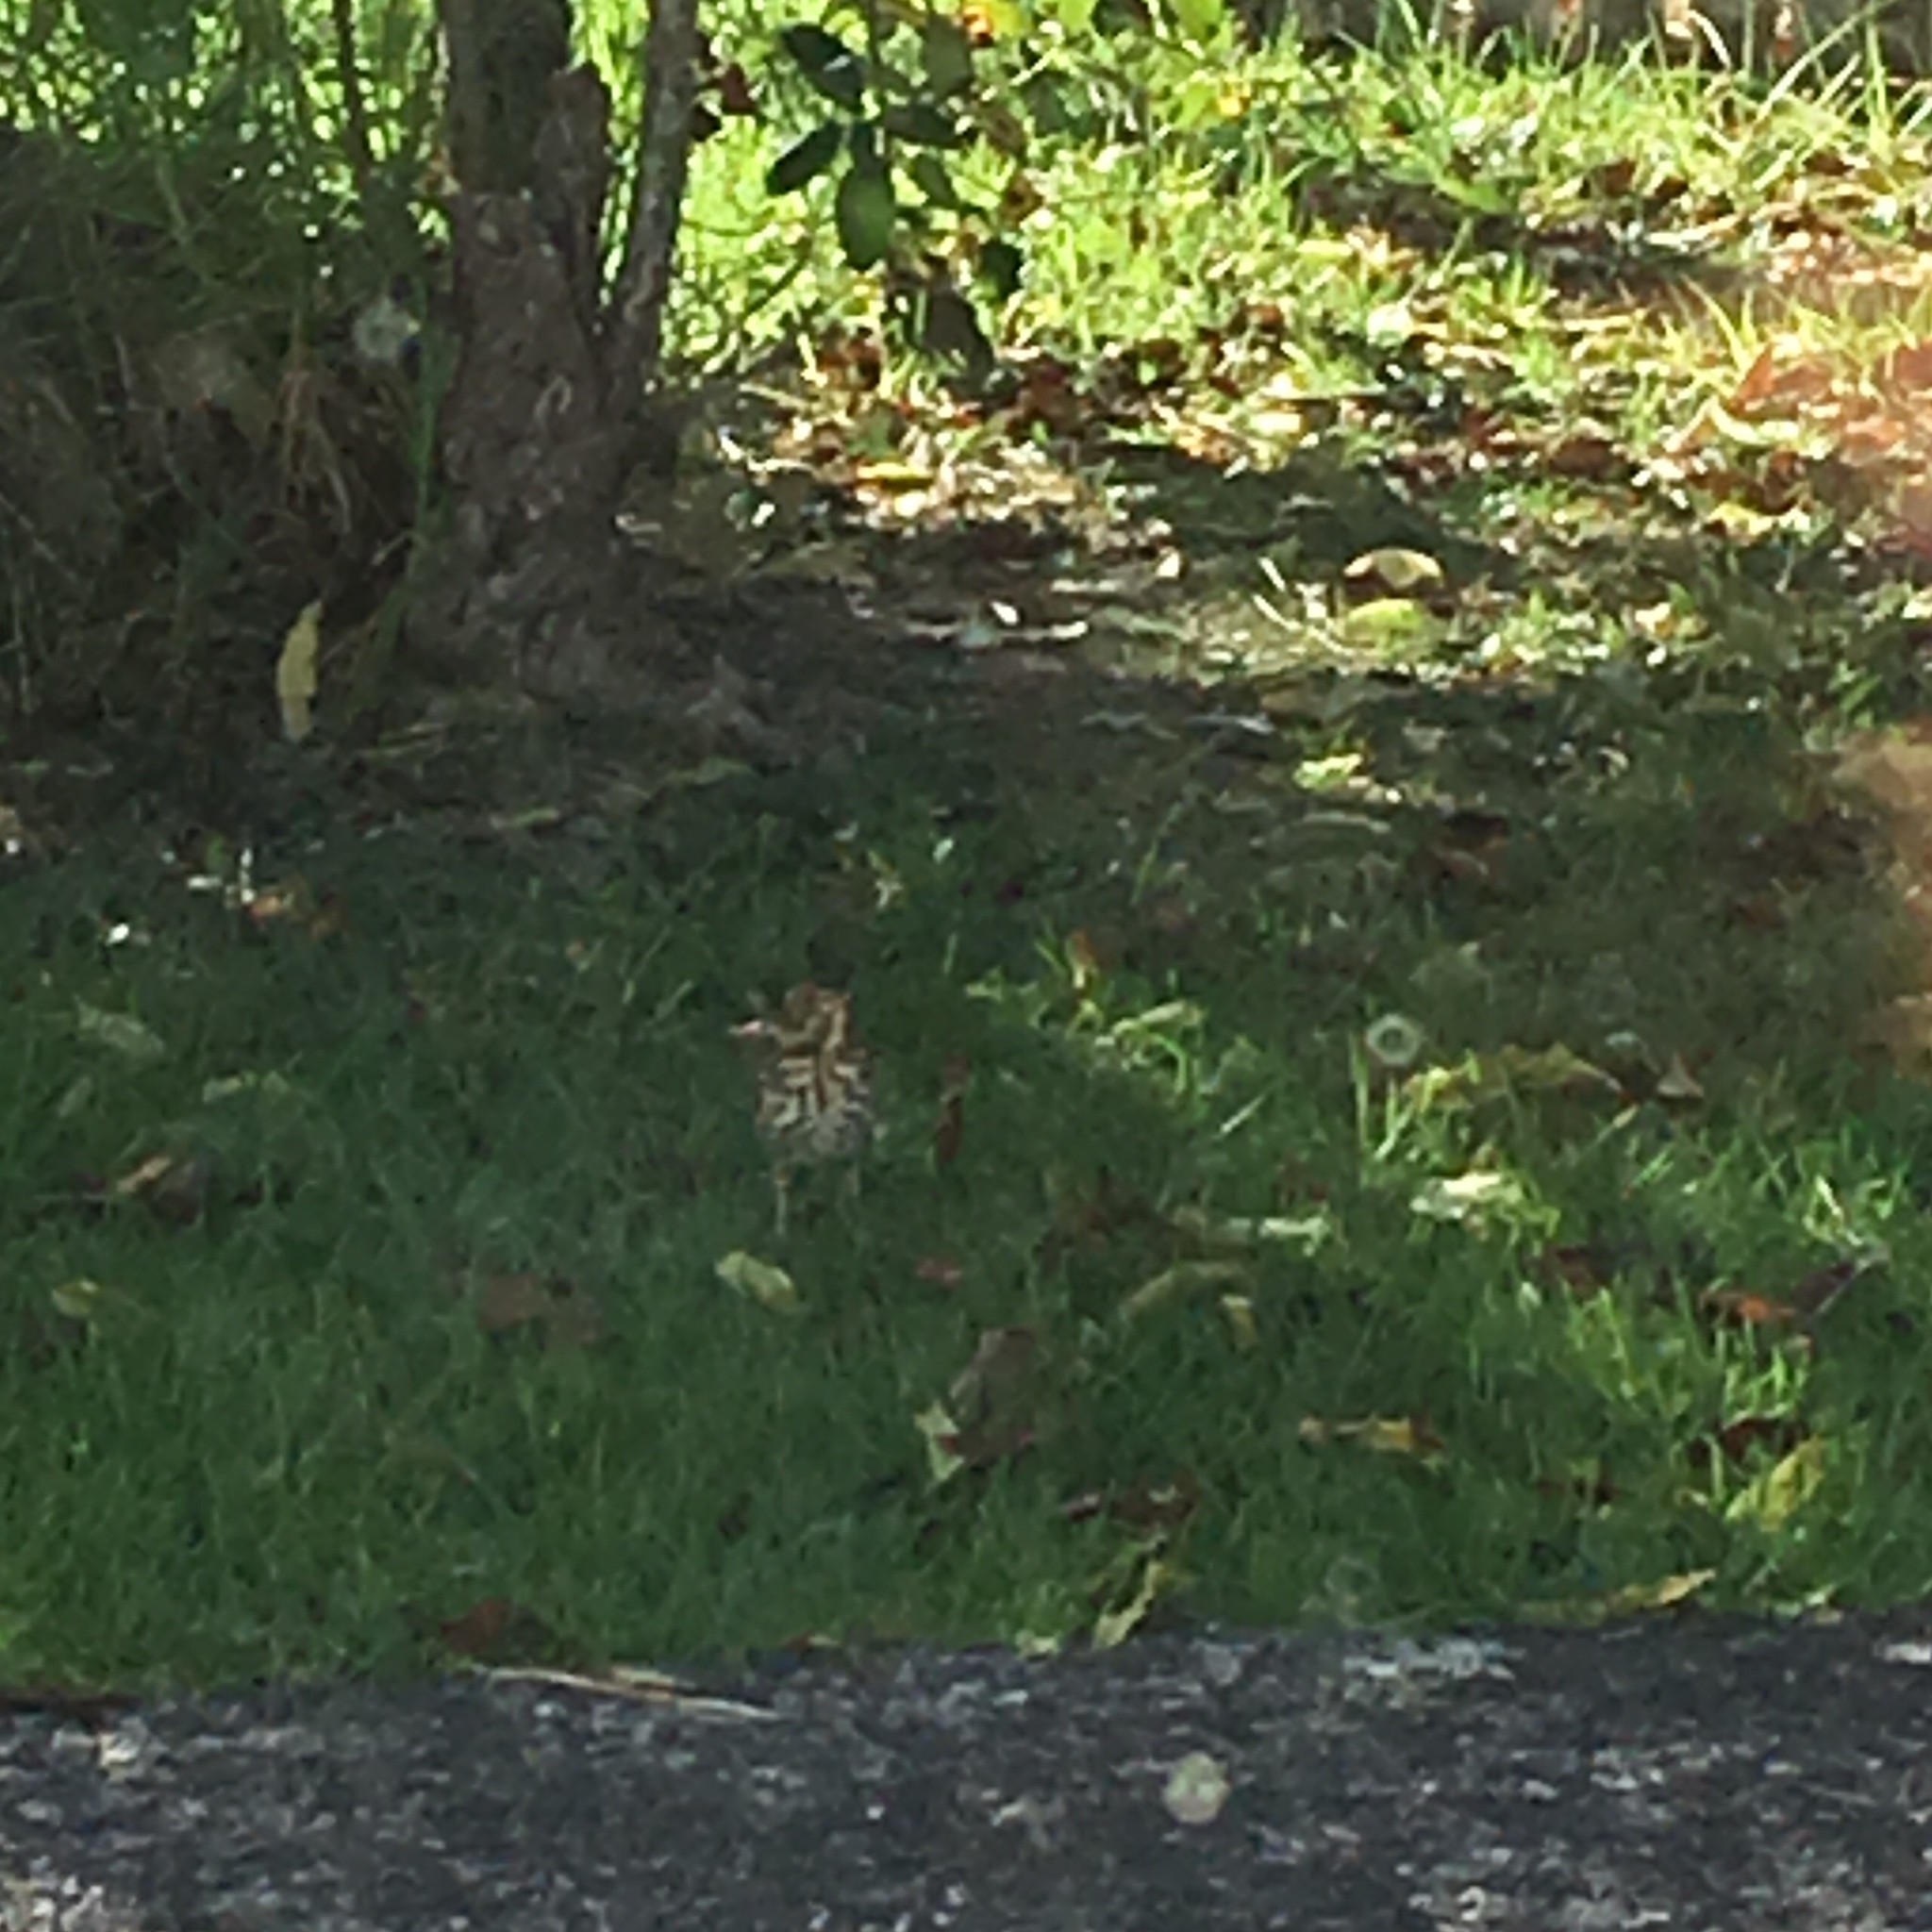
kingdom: Animalia
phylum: Chordata
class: Aves
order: Passeriformes
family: Turdidae
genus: Turdus
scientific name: Turdus philomelos
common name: Song thrush
